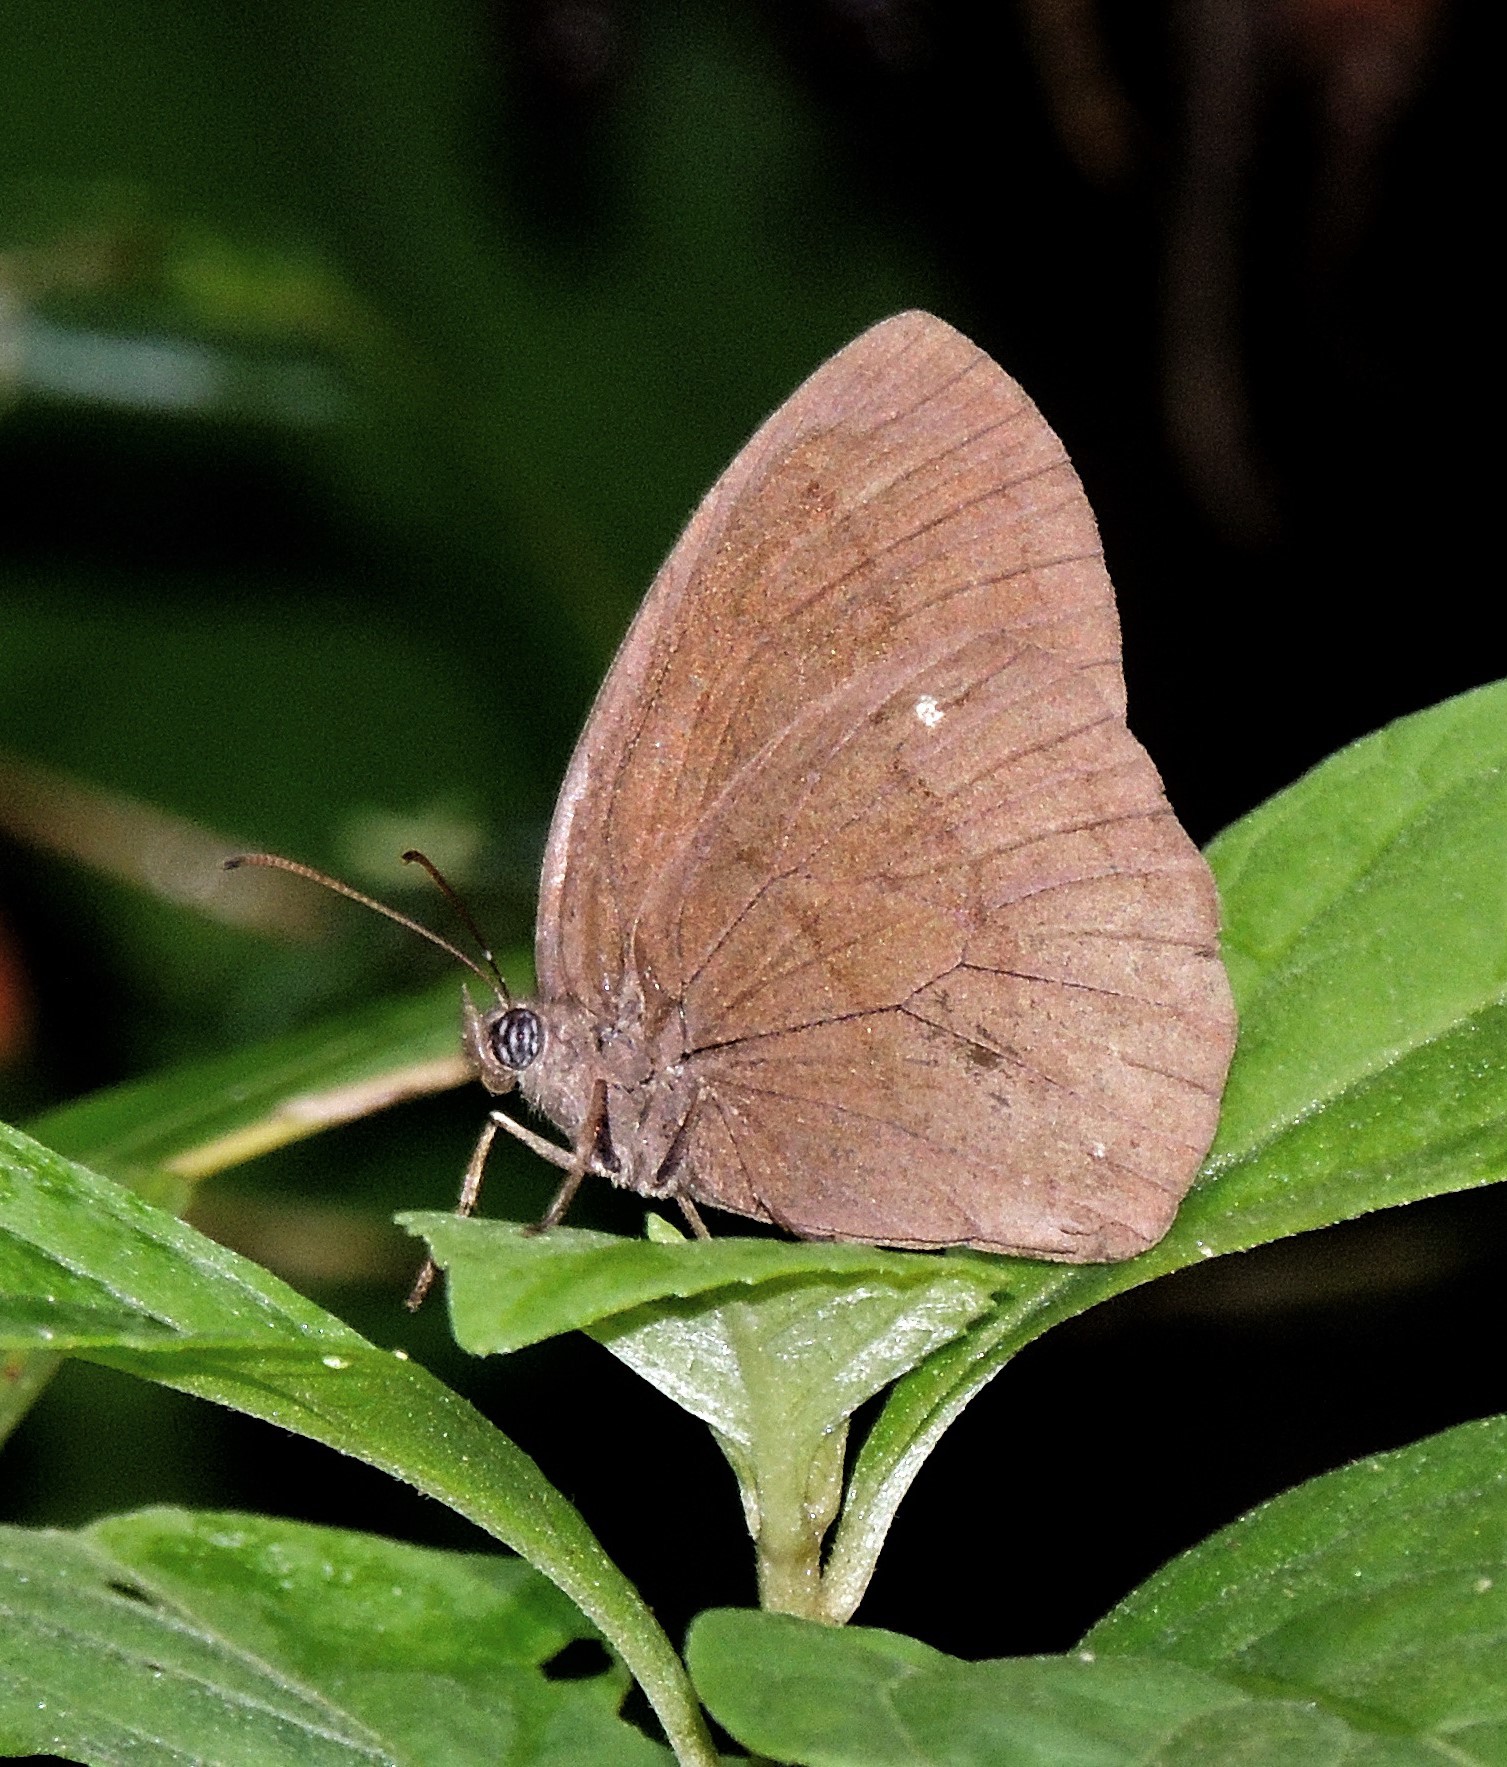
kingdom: Animalia
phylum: Arthropoda
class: Insecta
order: Lepidoptera
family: Nymphalidae
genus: Forsterinaria
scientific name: Forsterinaria quantius
